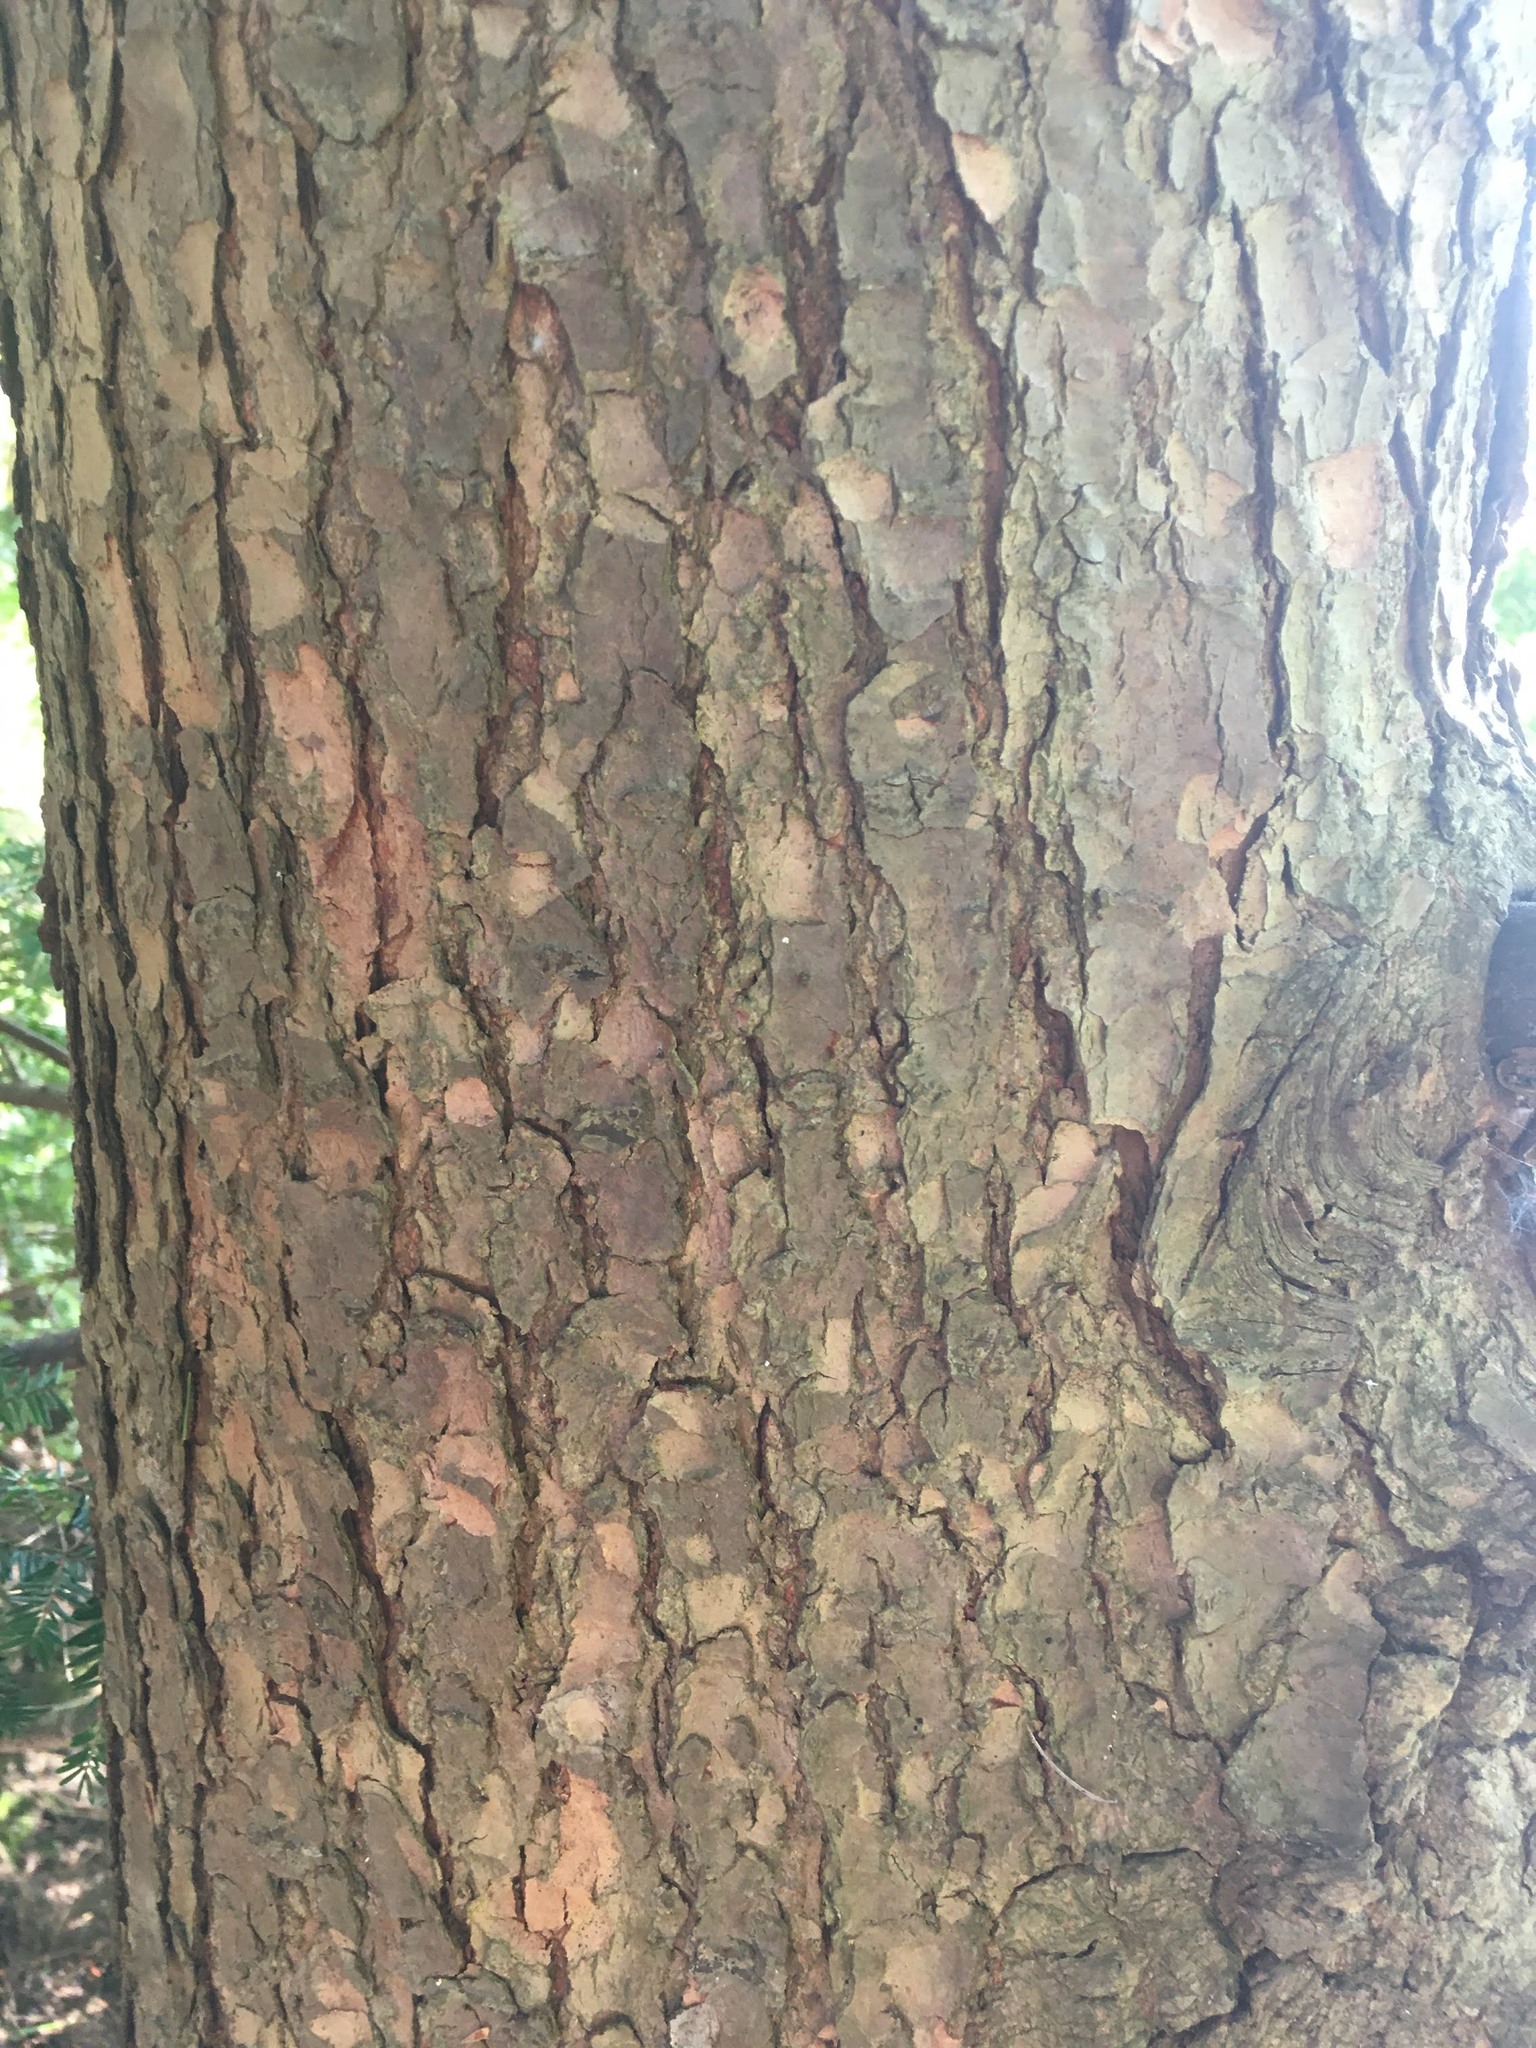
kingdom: Plantae
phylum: Tracheophyta
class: Pinopsida
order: Pinales
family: Pinaceae
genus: Tsuga
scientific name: Tsuga canadensis
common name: Eastern hemlock
